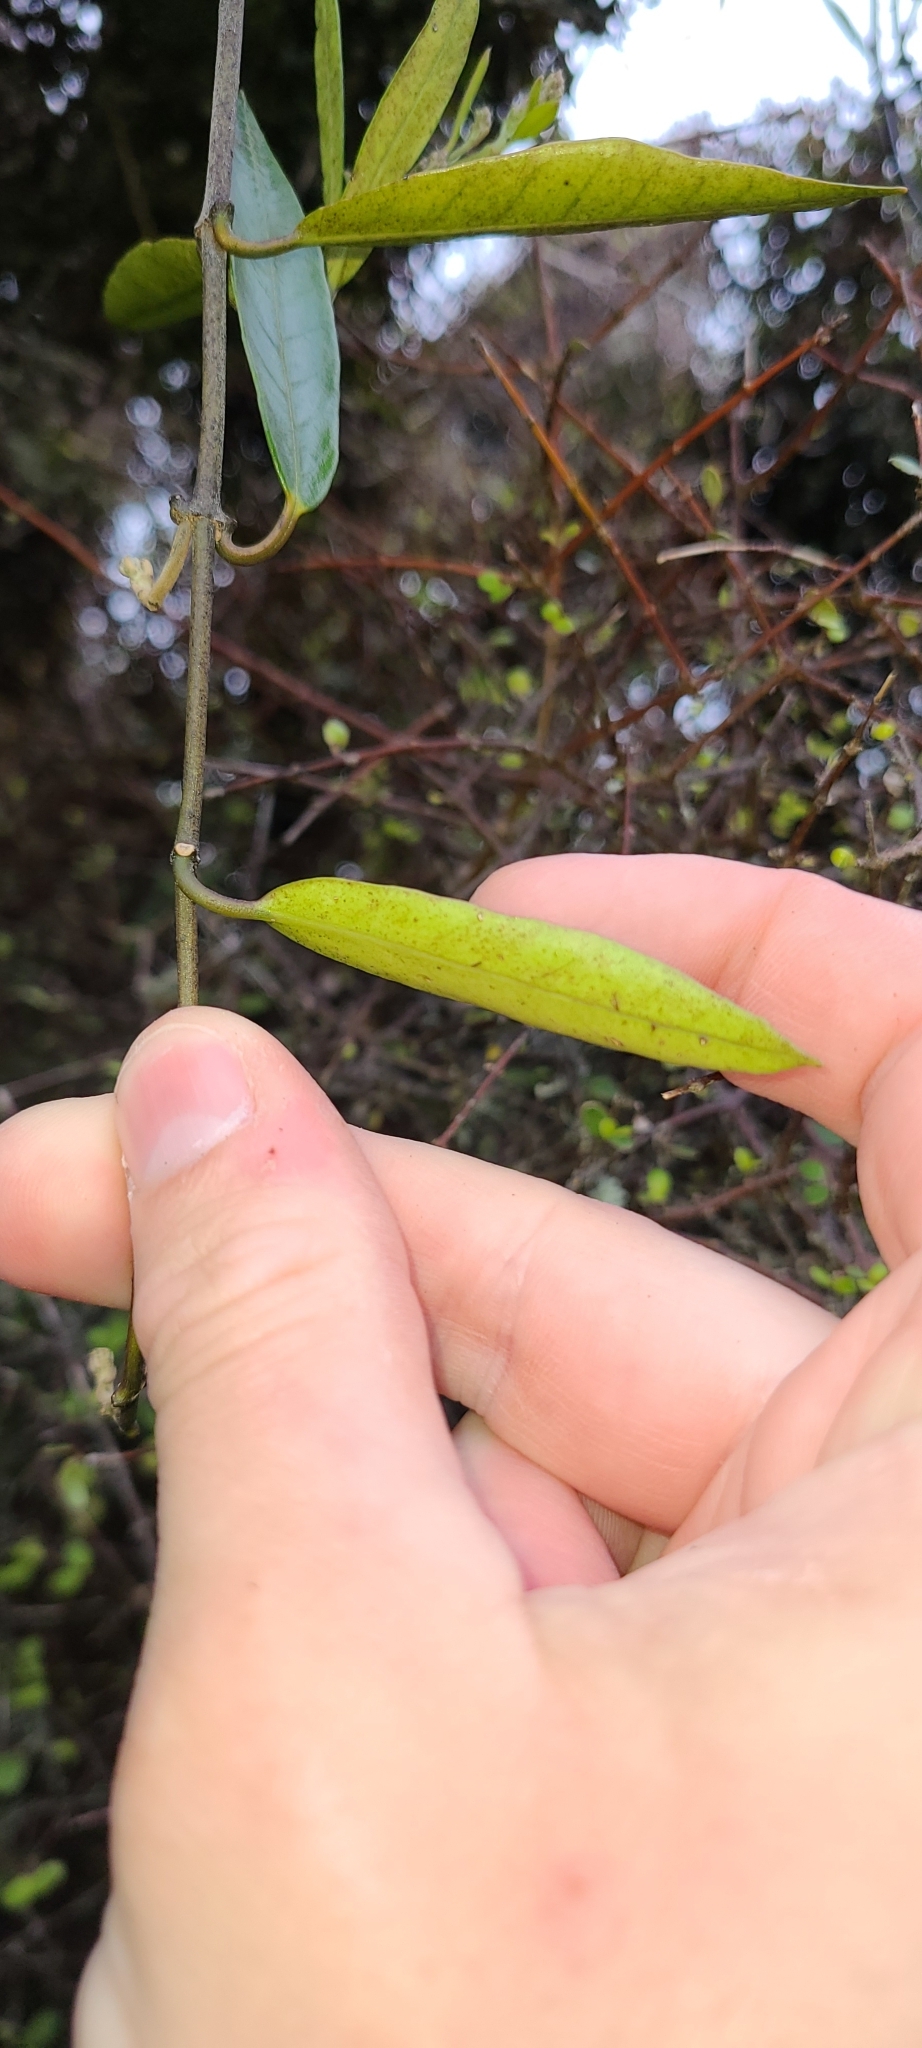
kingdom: Plantae
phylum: Tracheophyta
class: Magnoliopsida
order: Gentianales
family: Apocynaceae
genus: Parsonsia
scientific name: Parsonsia heterophylla
